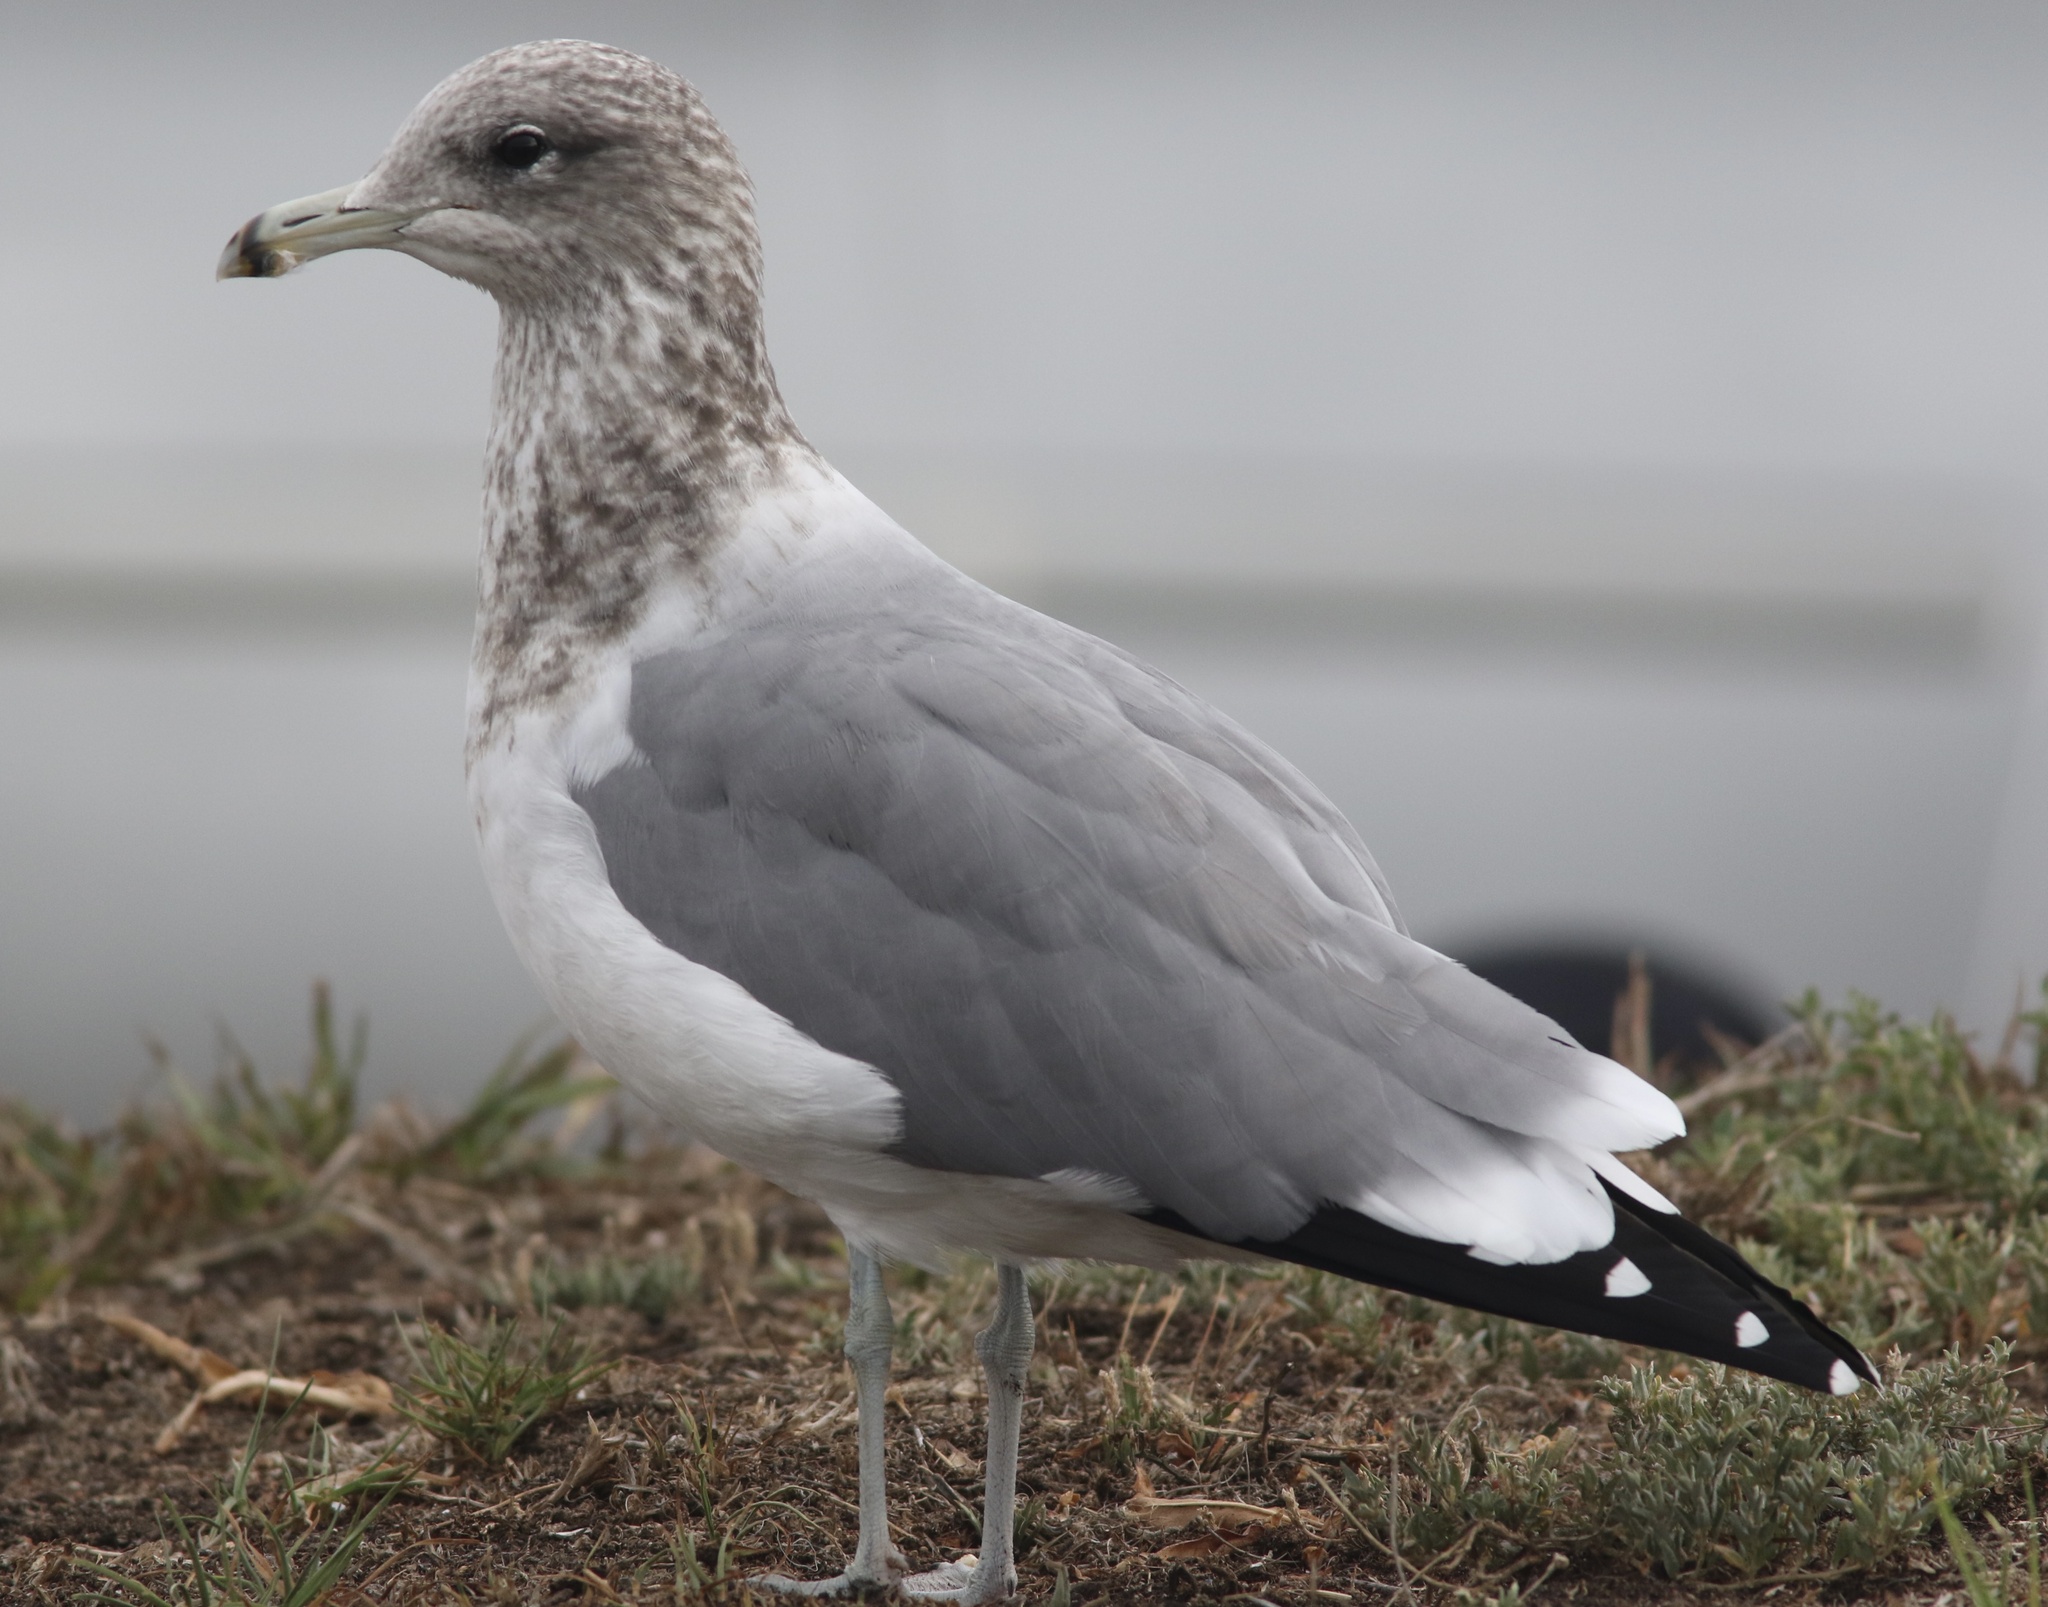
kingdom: Animalia
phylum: Chordata
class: Aves
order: Charadriiformes
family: Laridae
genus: Larus
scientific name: Larus californicus
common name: California gull
